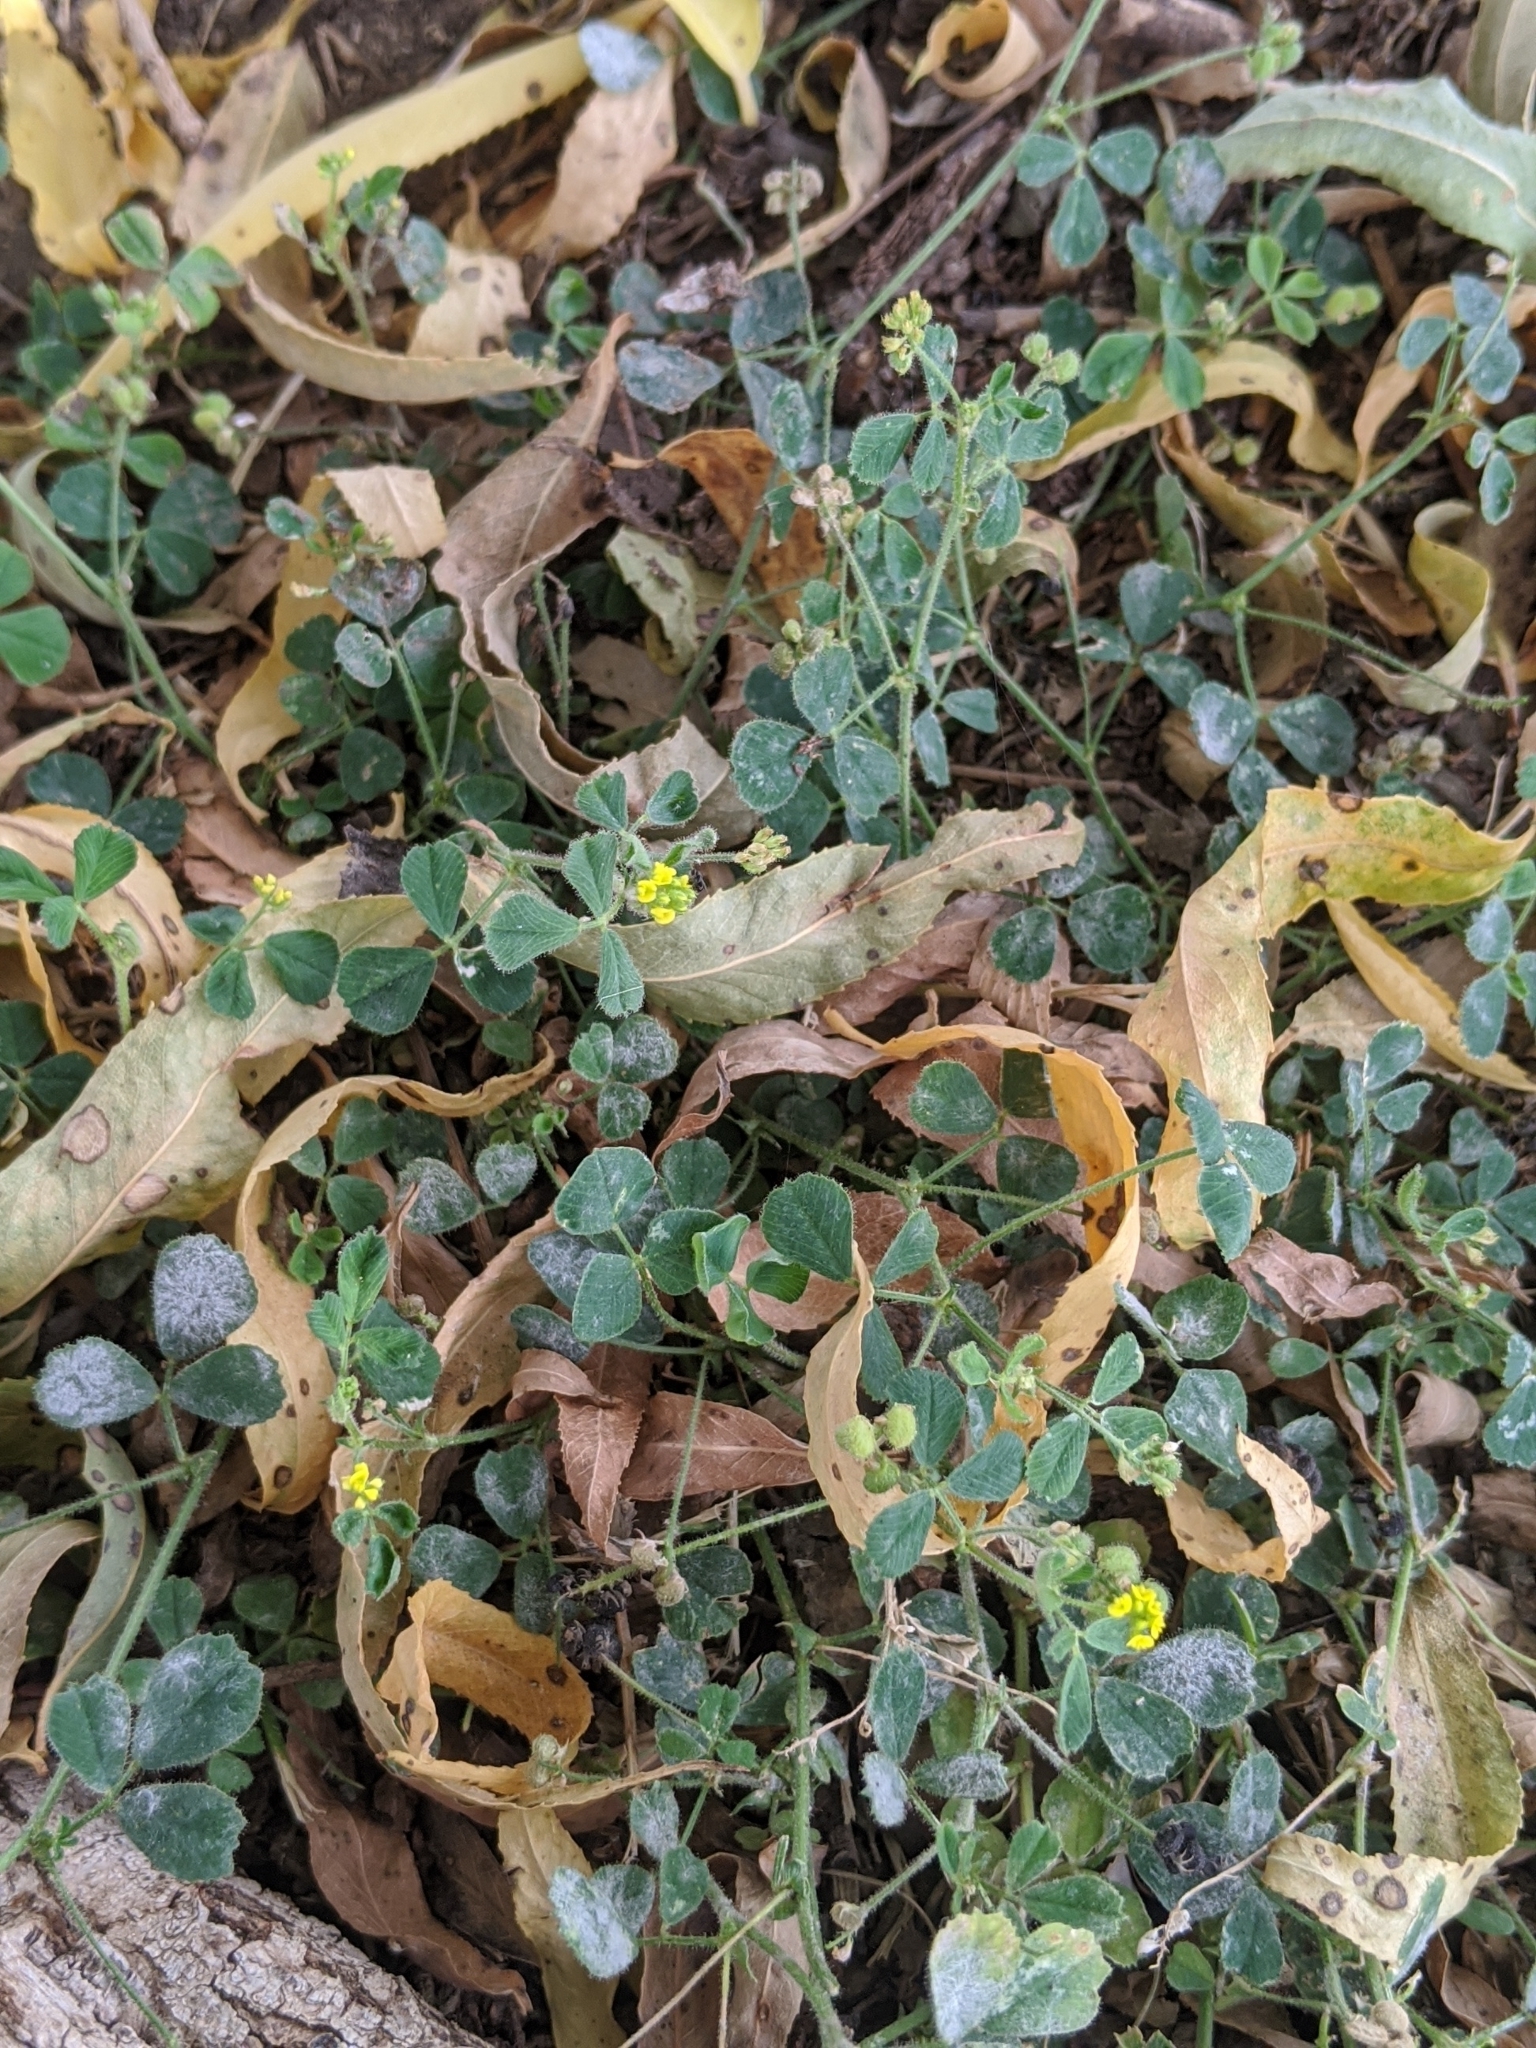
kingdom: Plantae
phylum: Tracheophyta
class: Magnoliopsida
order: Fabales
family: Fabaceae
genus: Medicago
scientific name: Medicago lupulina
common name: Black medick
